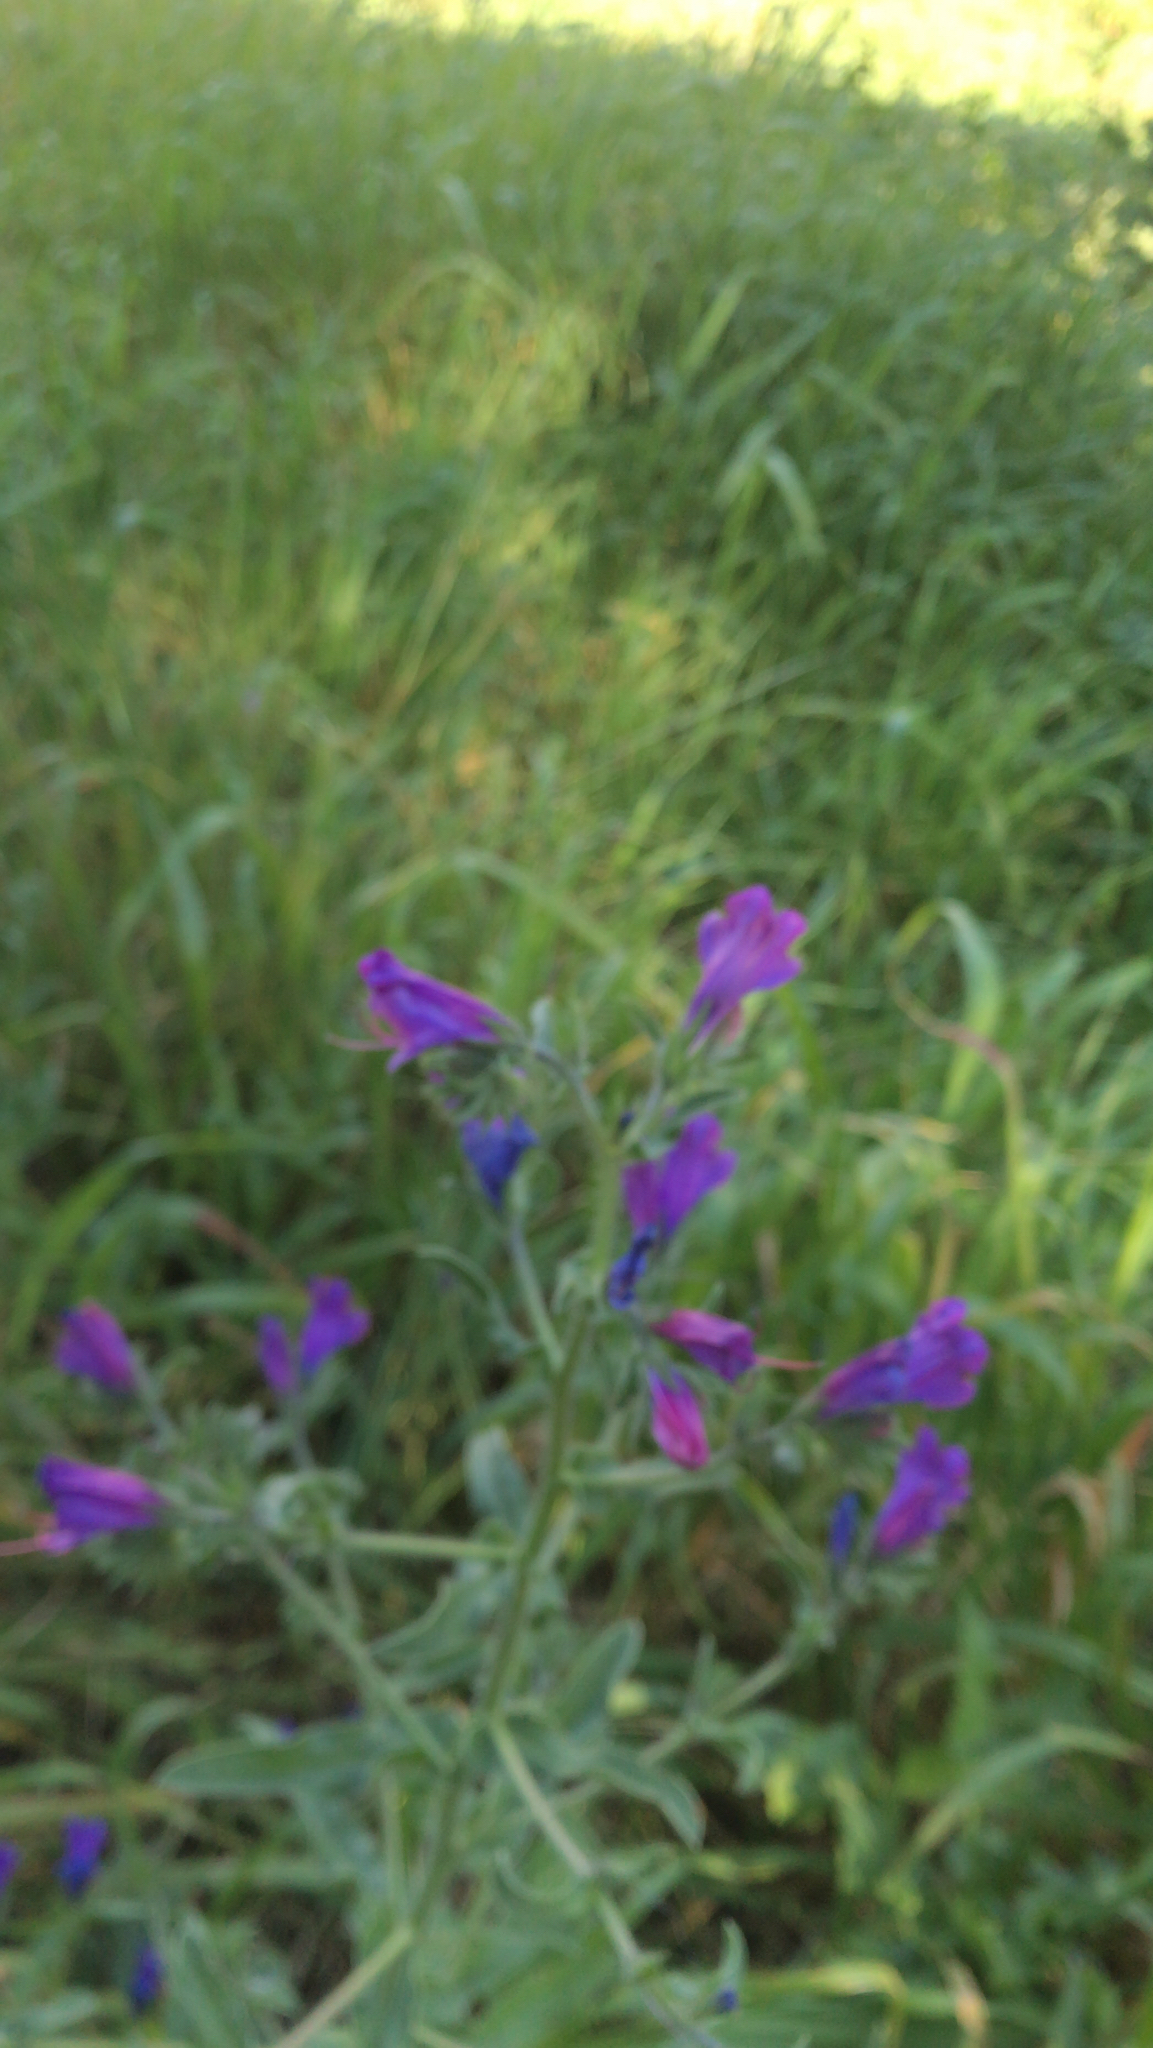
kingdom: Plantae
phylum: Tracheophyta
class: Magnoliopsida
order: Boraginales
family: Boraginaceae
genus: Echium
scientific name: Echium plantagineum
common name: Purple viper's-bugloss
